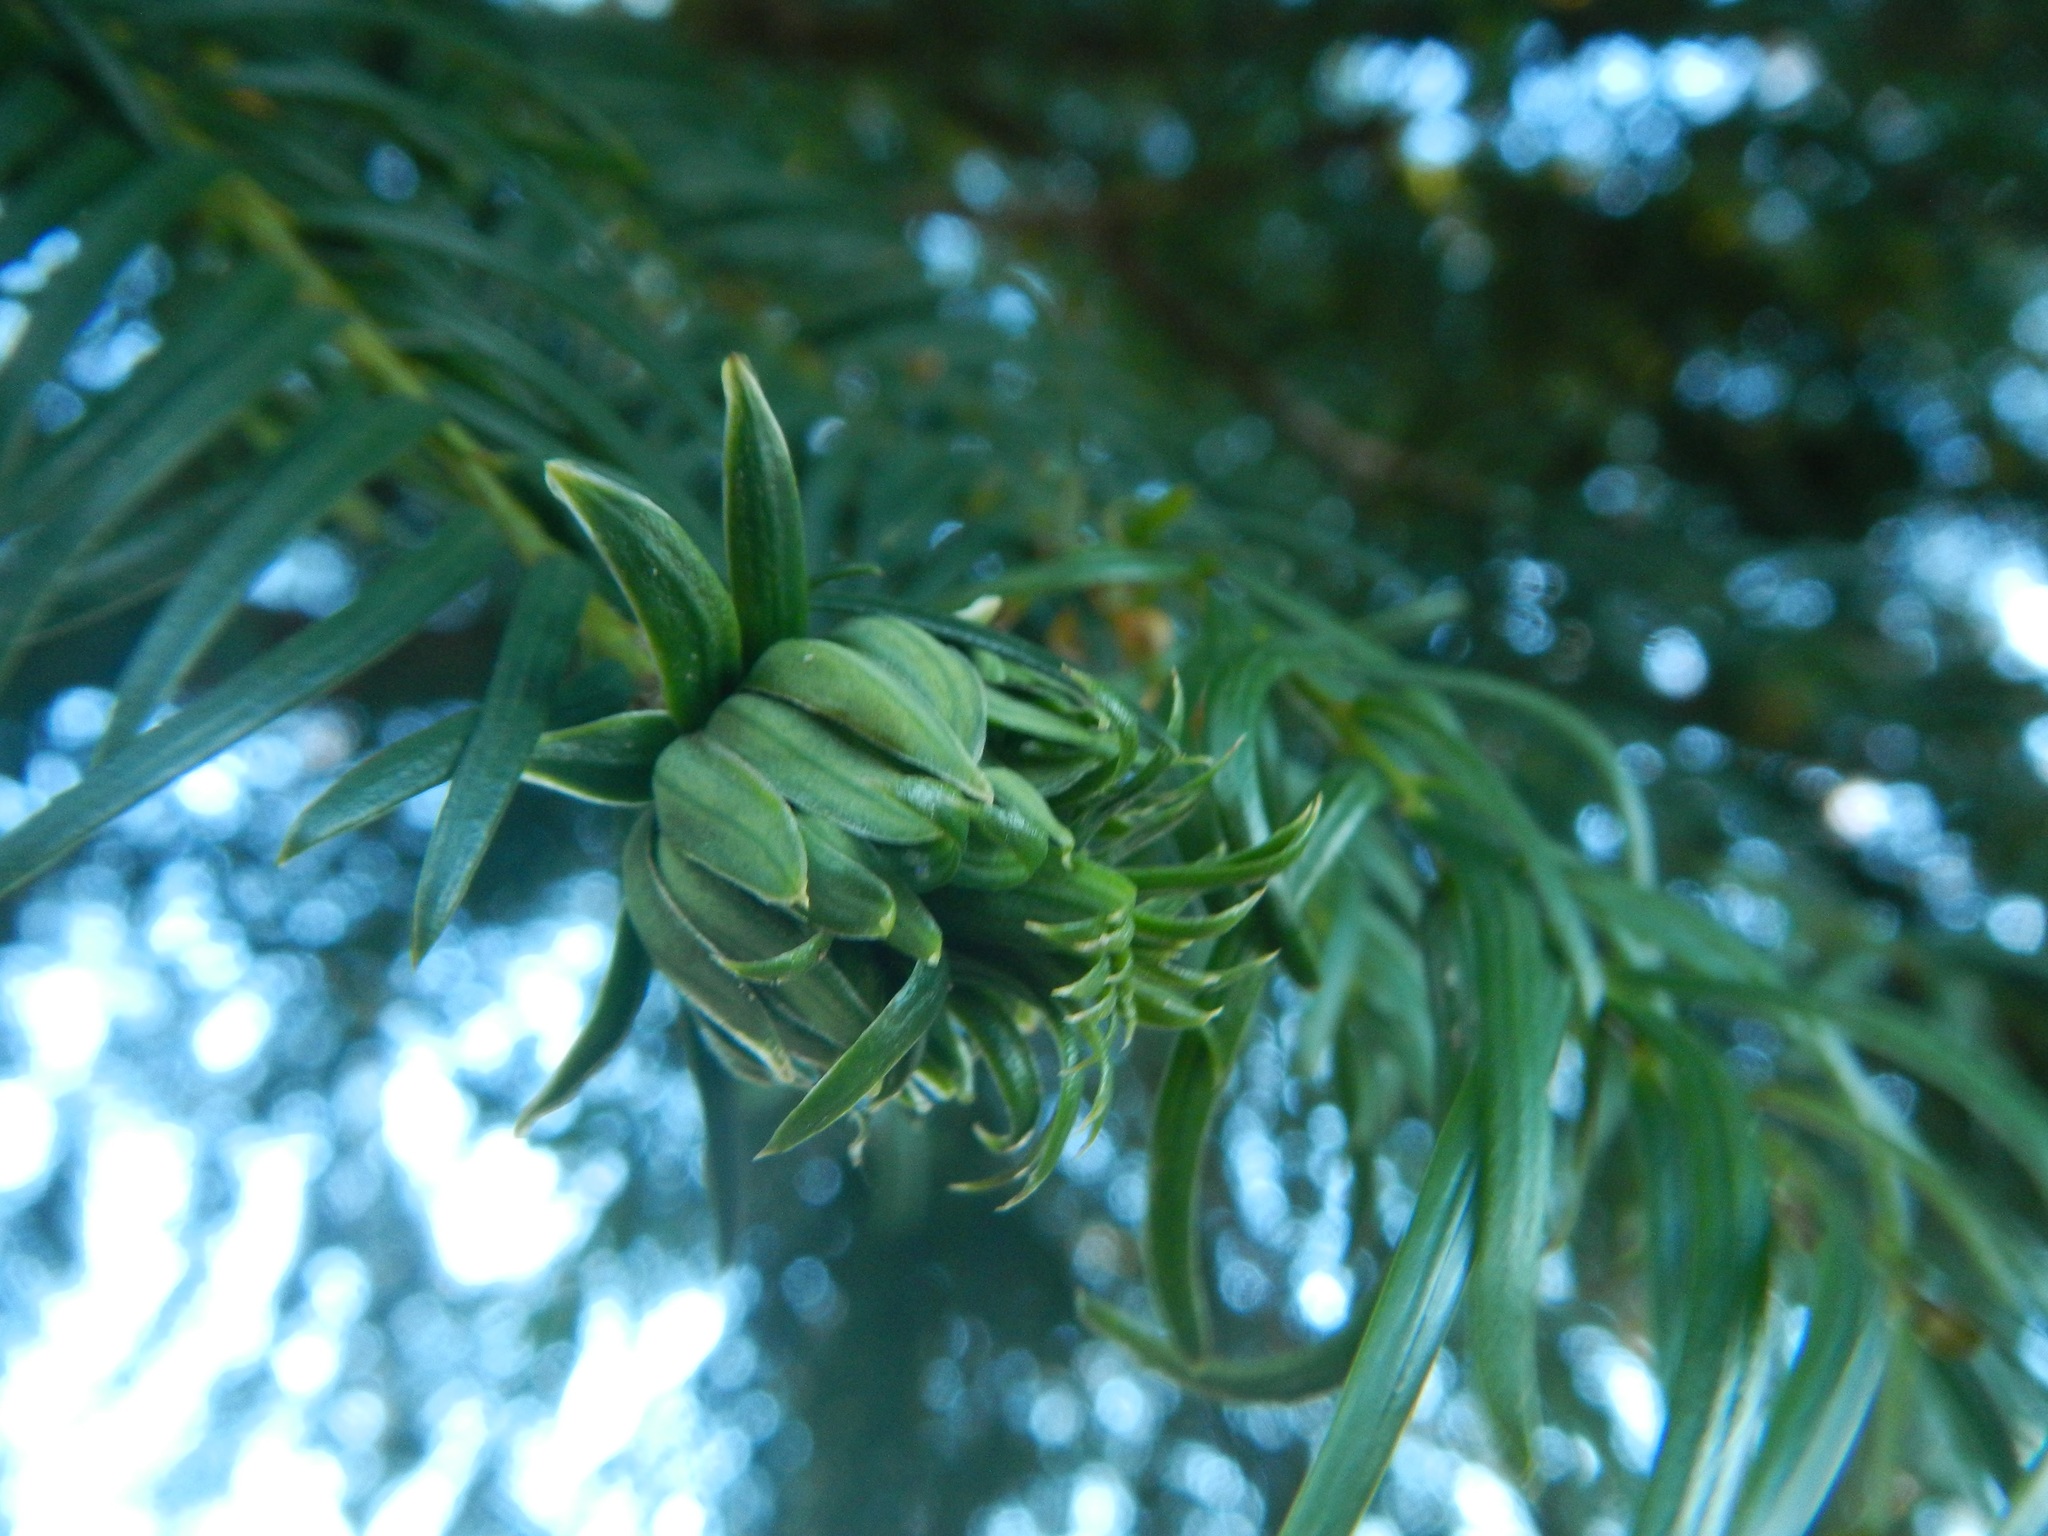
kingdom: Animalia
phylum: Arthropoda
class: Insecta
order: Diptera
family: Cecidomyiidae
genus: Taxomyia
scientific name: Taxomyia taxi
